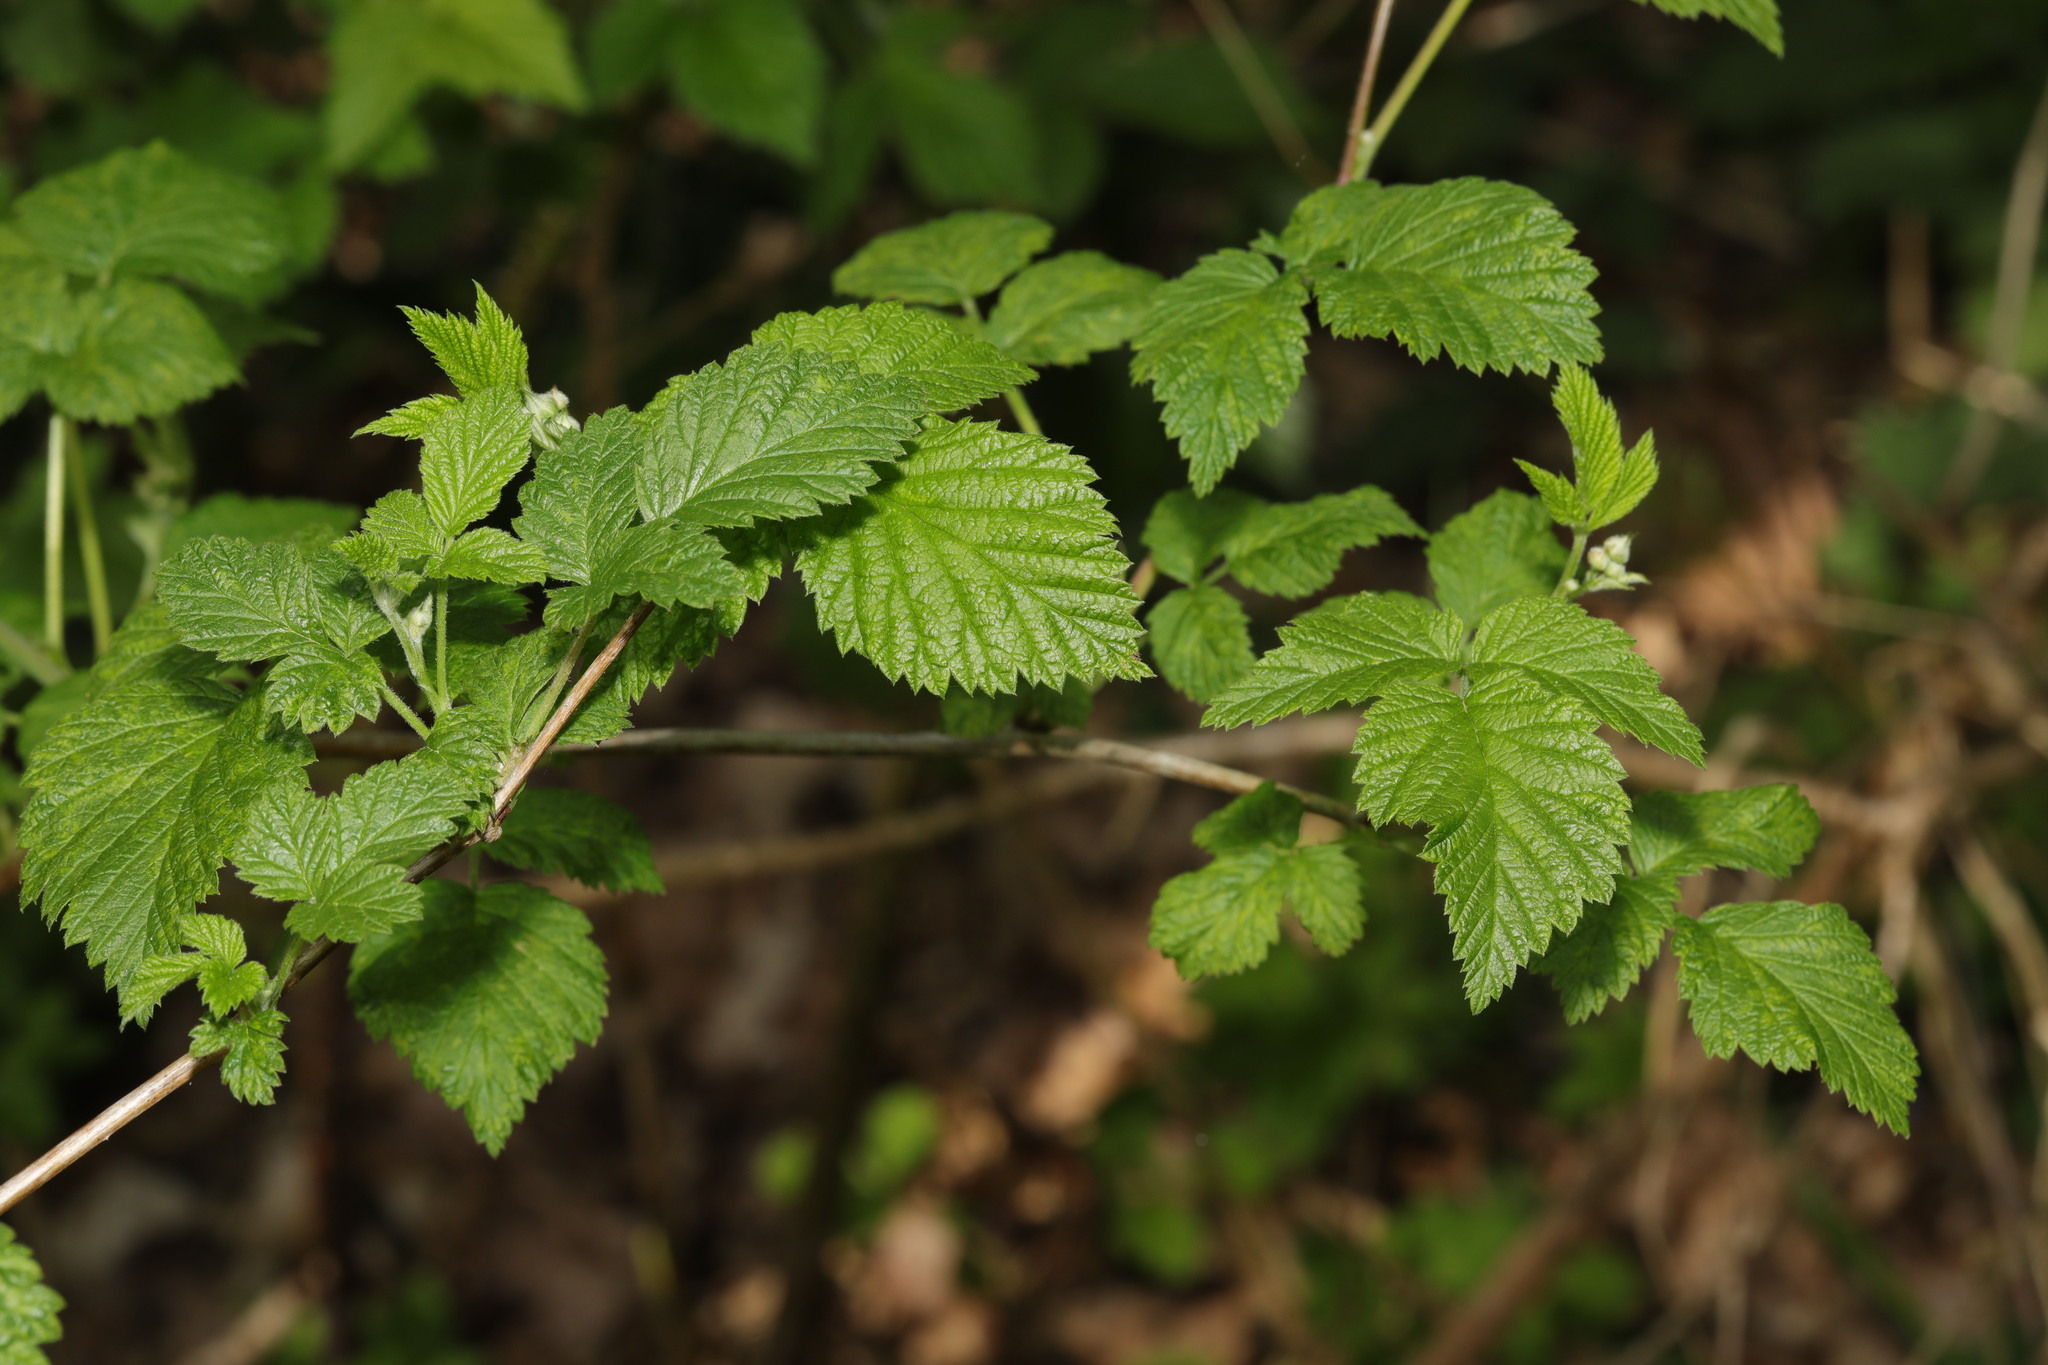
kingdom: Plantae
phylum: Tracheophyta
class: Magnoliopsida
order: Rosales
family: Rosaceae
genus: Rubus
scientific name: Rubus idaeus
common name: Raspberry
